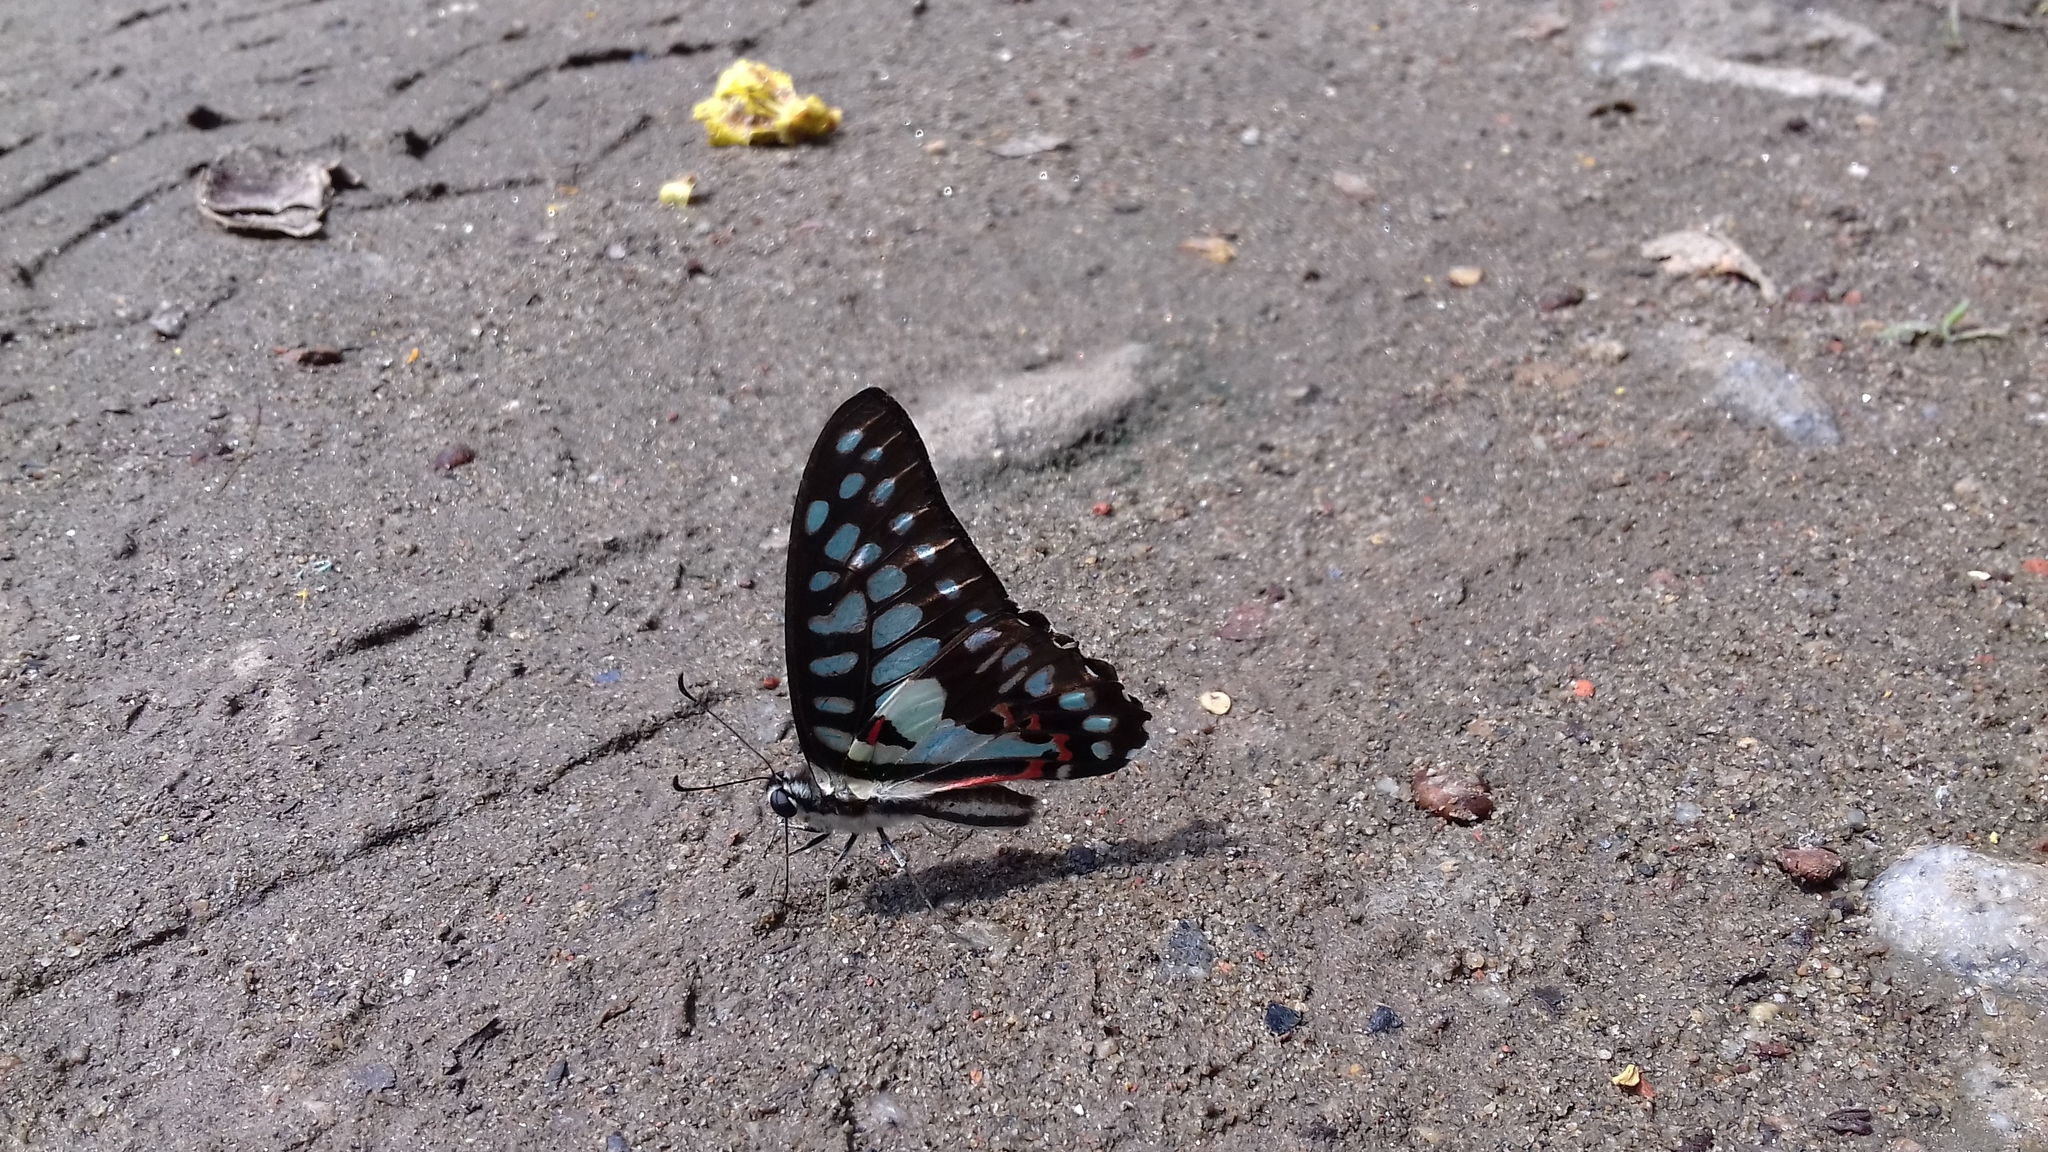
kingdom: Animalia
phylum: Arthropoda
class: Insecta
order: Lepidoptera
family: Papilionidae
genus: Graphium
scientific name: Graphium doson
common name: Common jay
